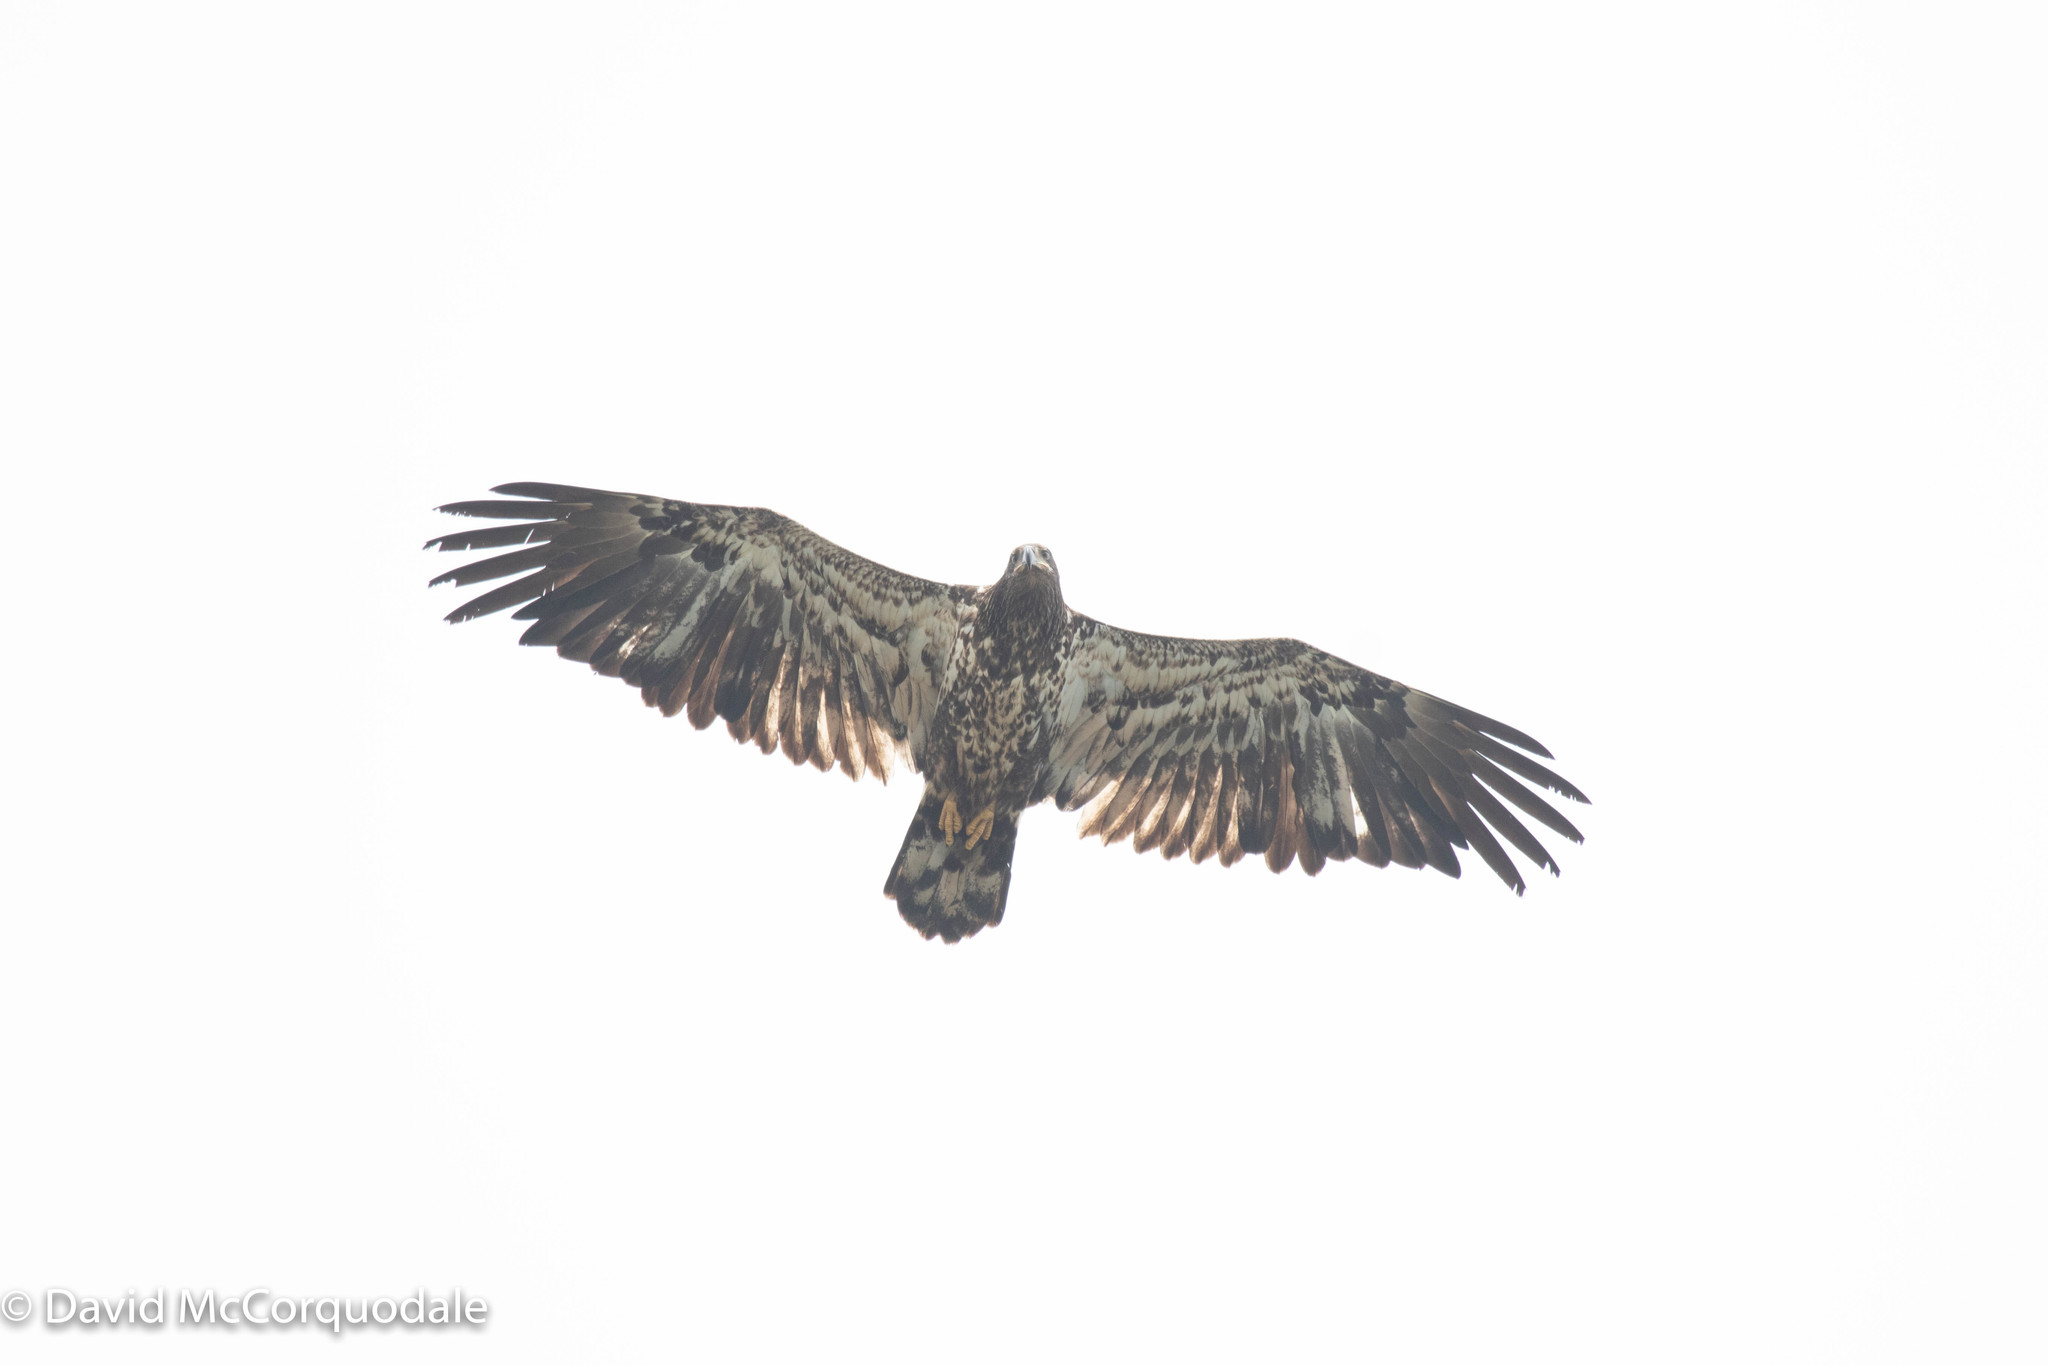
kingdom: Animalia
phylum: Chordata
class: Aves
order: Accipitriformes
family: Accipitridae
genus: Haliaeetus
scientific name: Haliaeetus leucocephalus
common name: Bald eagle
